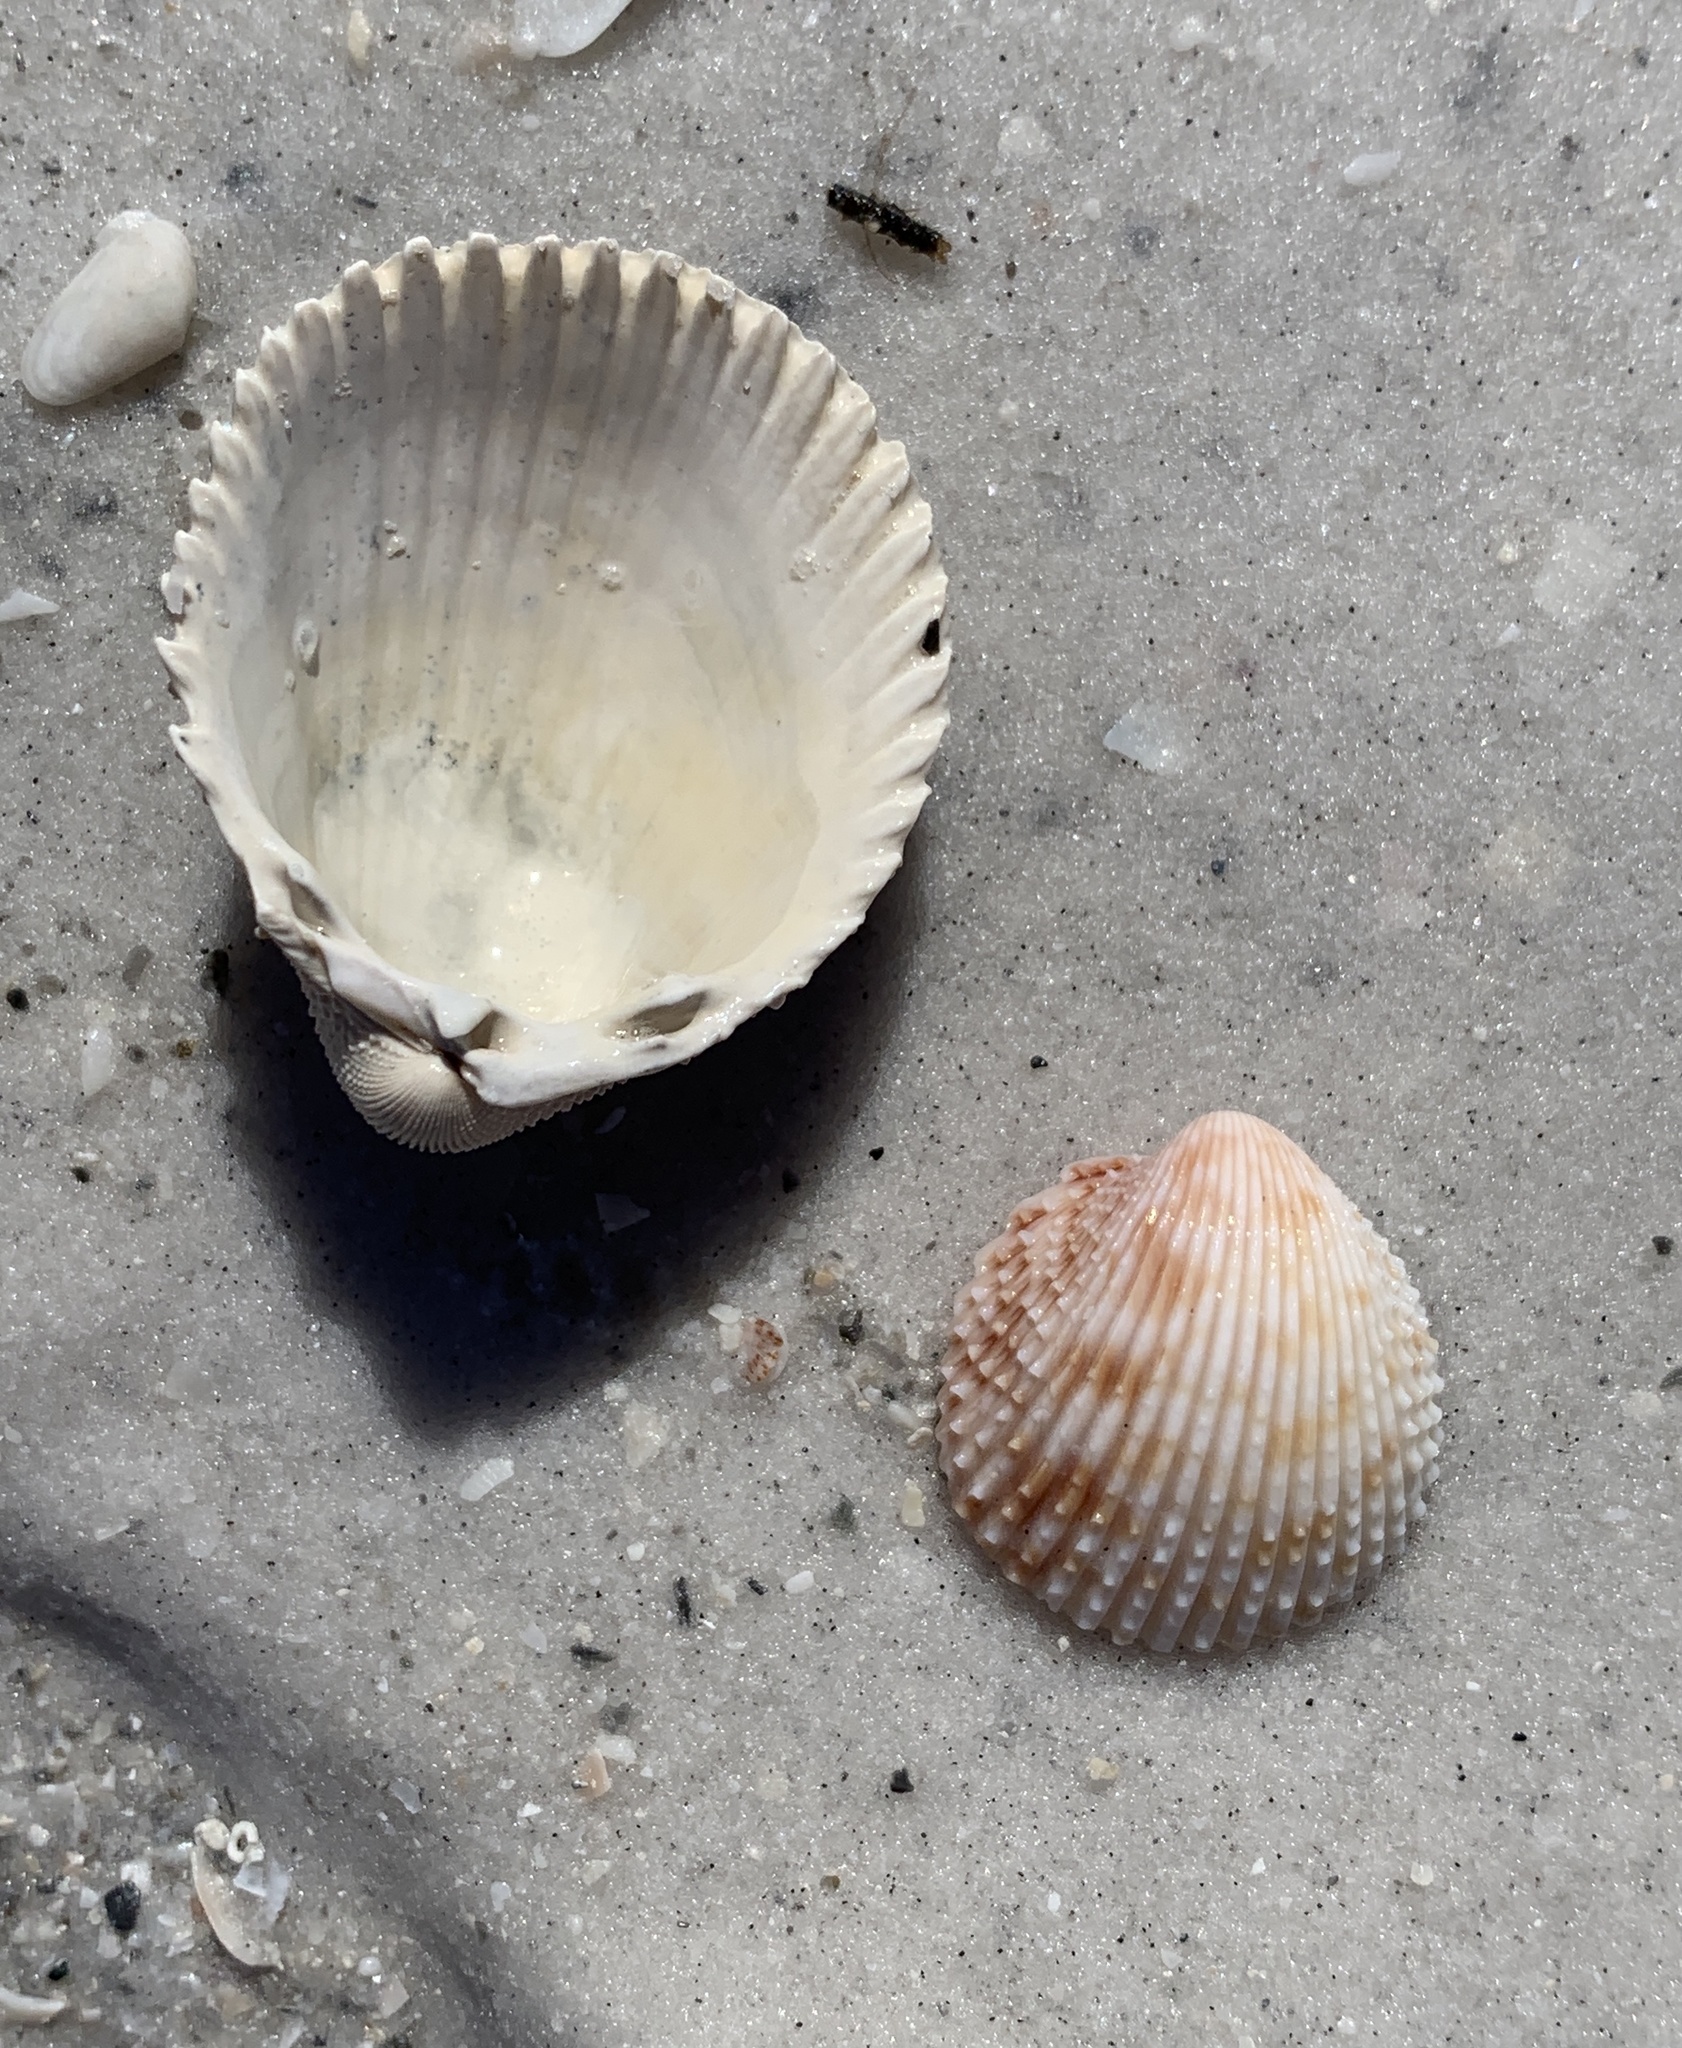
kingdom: Animalia
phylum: Mollusca
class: Bivalvia
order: Cardiida
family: Cardiidae
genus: Trachycardium
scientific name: Trachycardium egmontianum
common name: Florida pricklycockle
